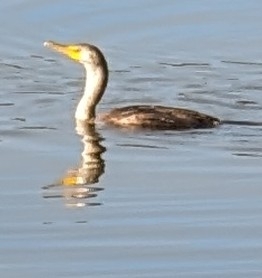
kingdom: Animalia
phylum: Chordata
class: Aves
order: Suliformes
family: Phalacrocoracidae
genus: Phalacrocorax
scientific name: Phalacrocorax auritus
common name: Double-crested cormorant
